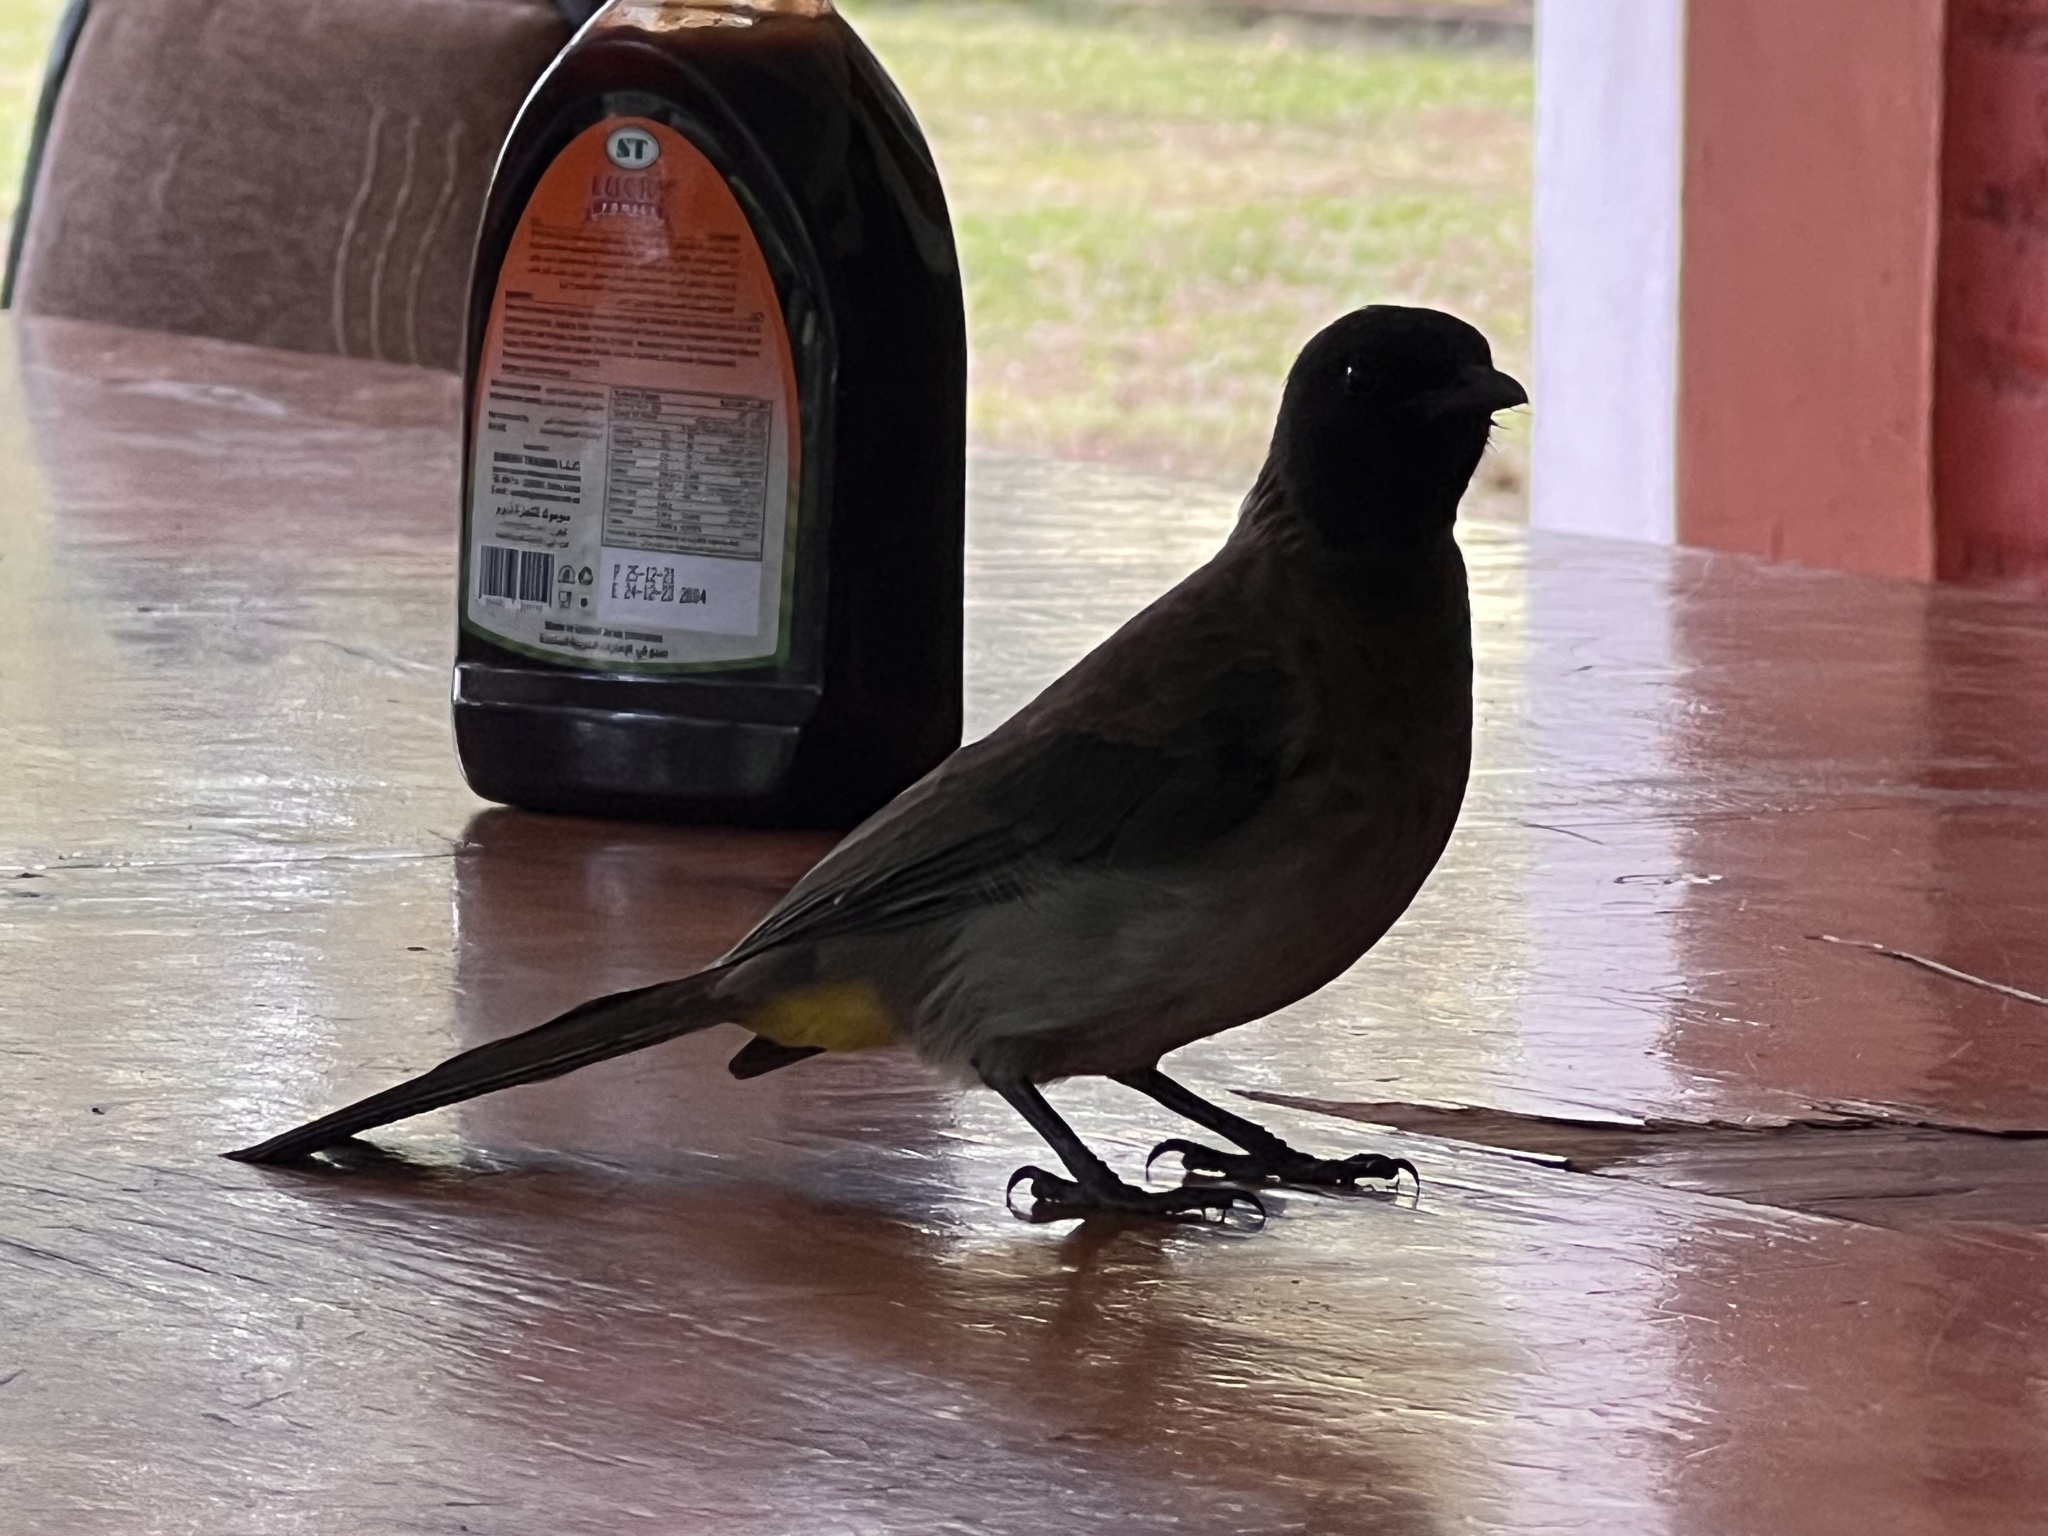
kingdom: Animalia
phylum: Chordata
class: Aves
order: Passeriformes
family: Pycnonotidae
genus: Pycnonotus
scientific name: Pycnonotus barbatus
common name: Common bulbul
